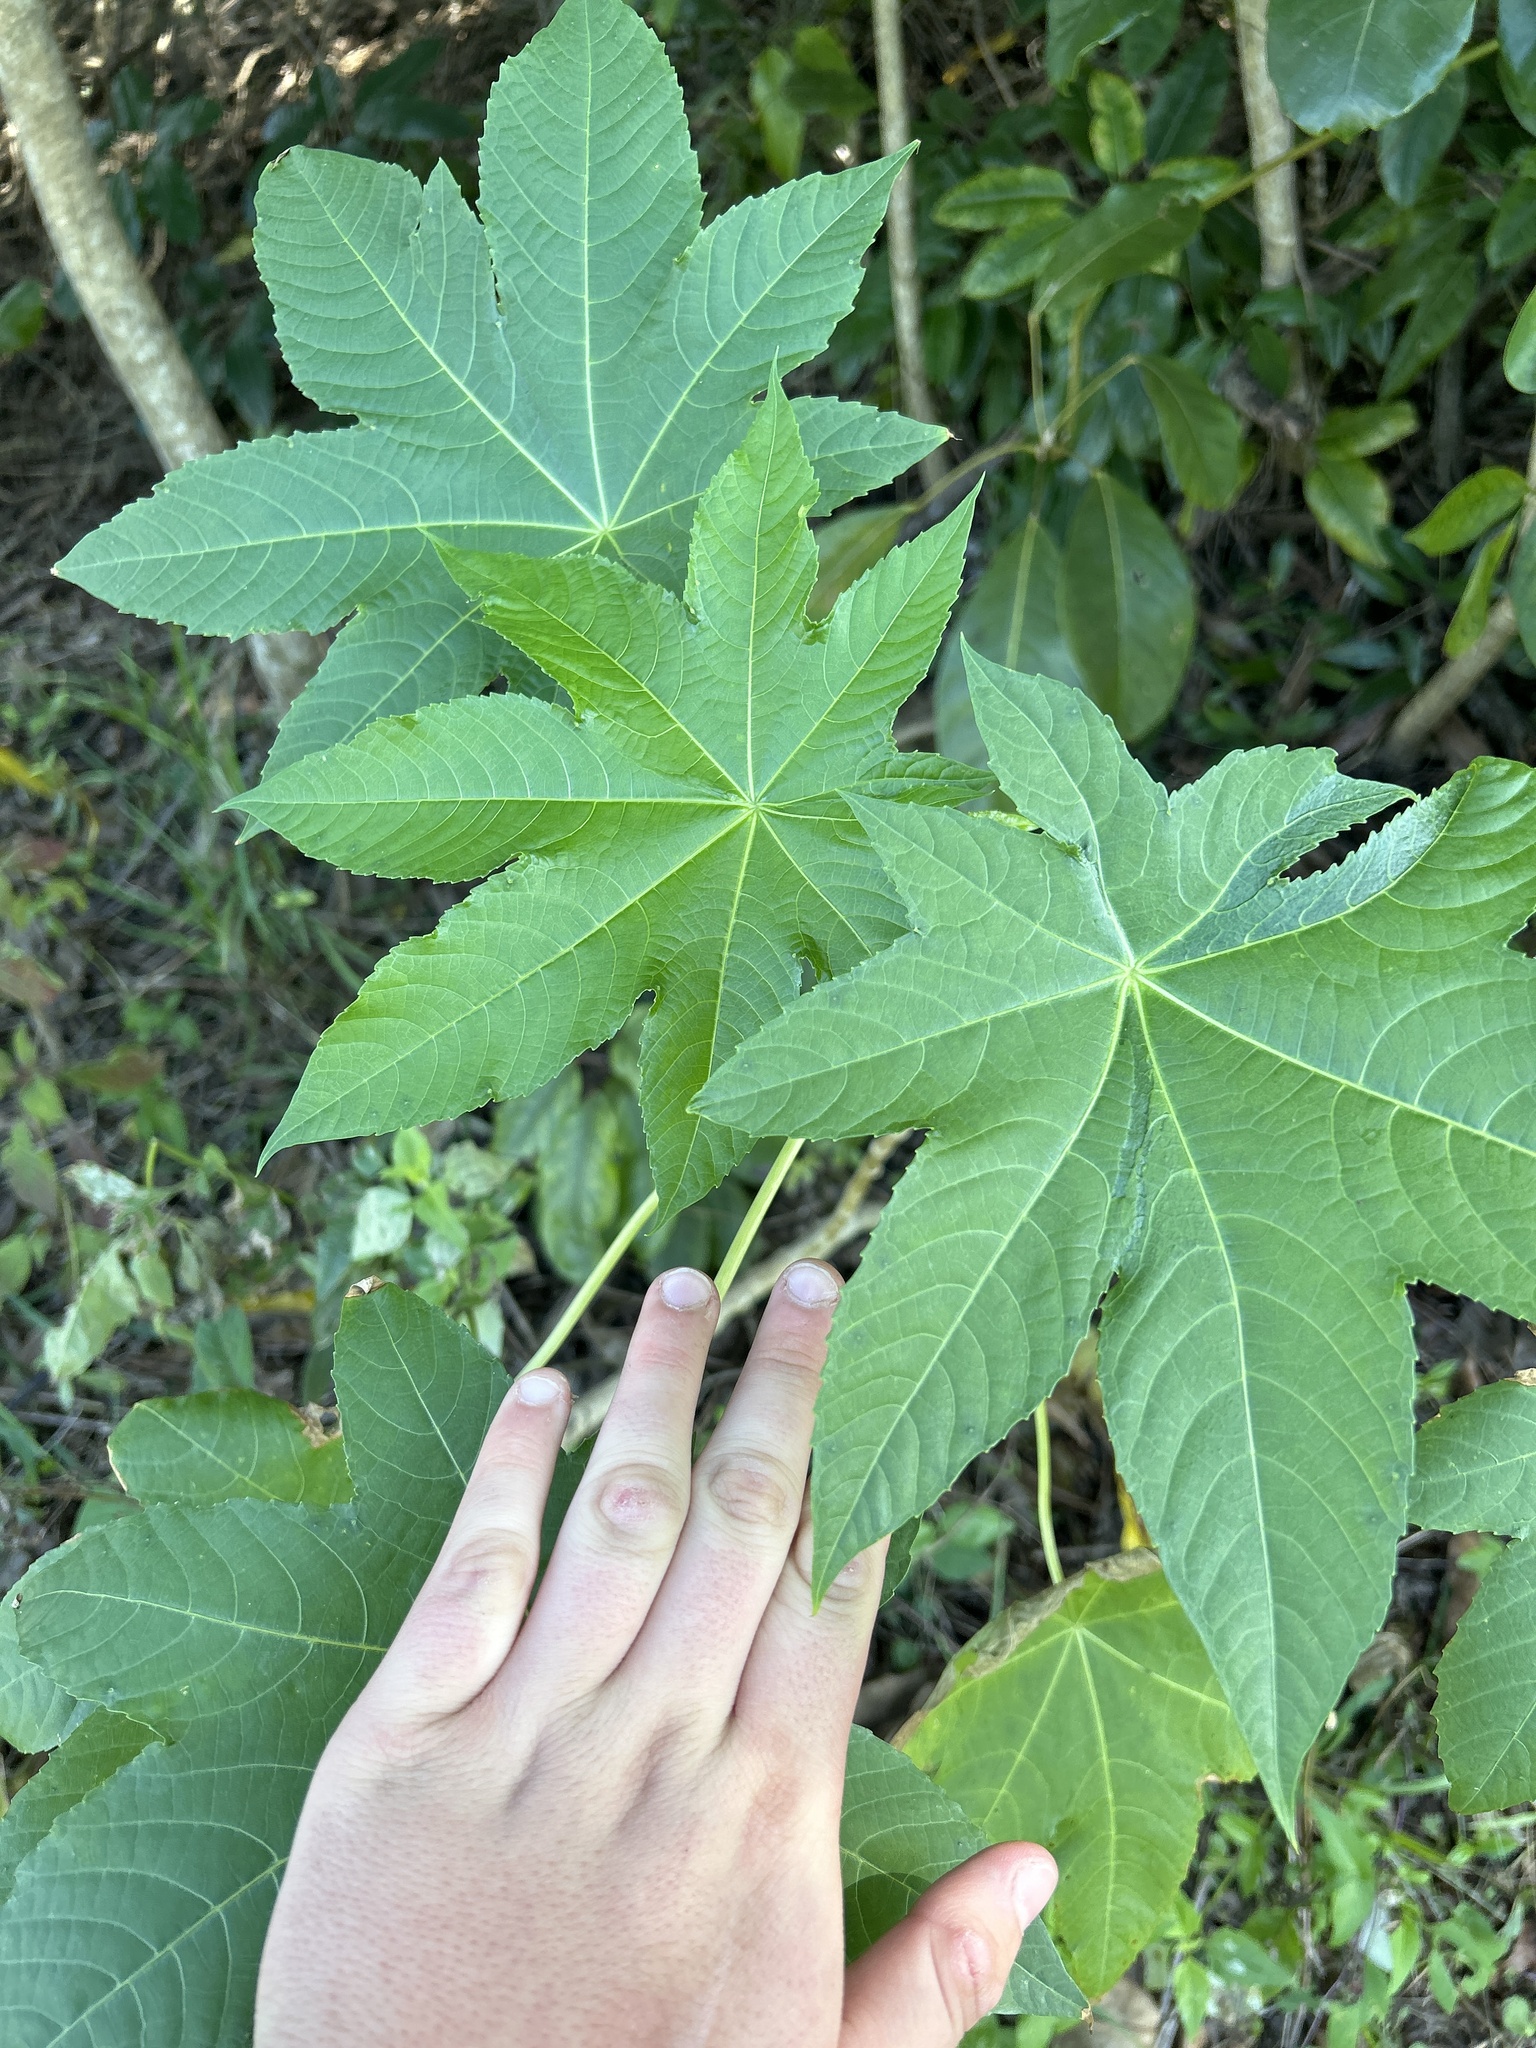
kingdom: Plantae
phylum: Tracheophyta
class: Magnoliopsida
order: Malpighiales
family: Euphorbiaceae
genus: Ricinus
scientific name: Ricinus communis
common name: Castor-oil-plant
